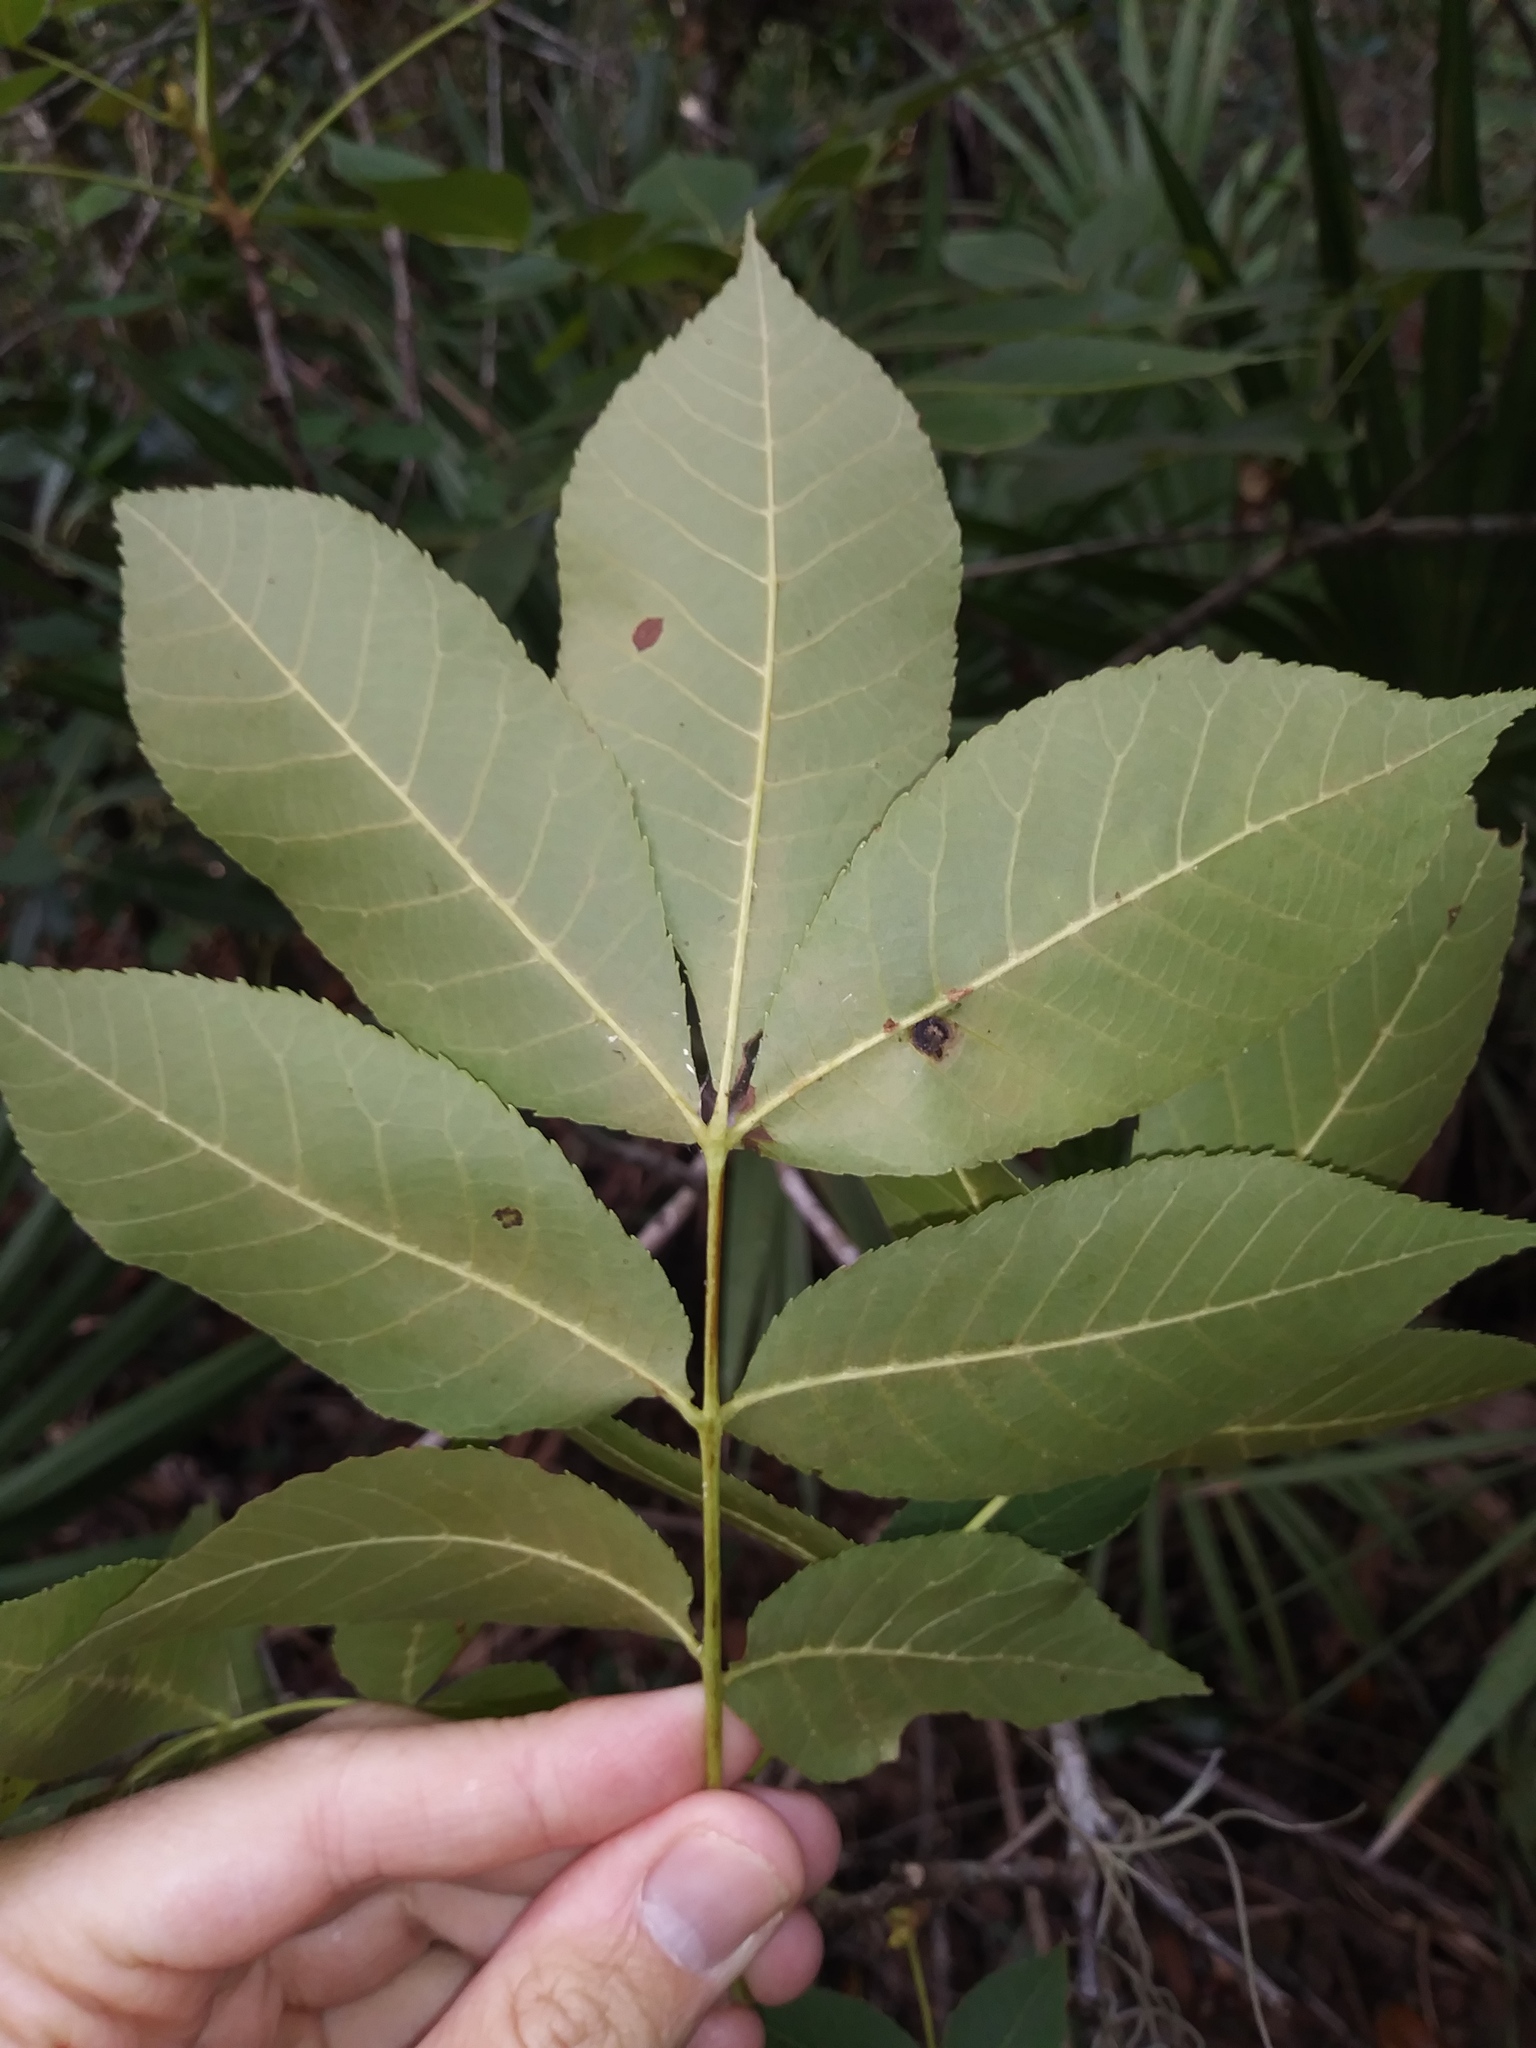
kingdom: Plantae
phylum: Tracheophyta
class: Magnoliopsida
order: Fagales
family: Juglandaceae
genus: Carya
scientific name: Carya glabra
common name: Pignut hickory
